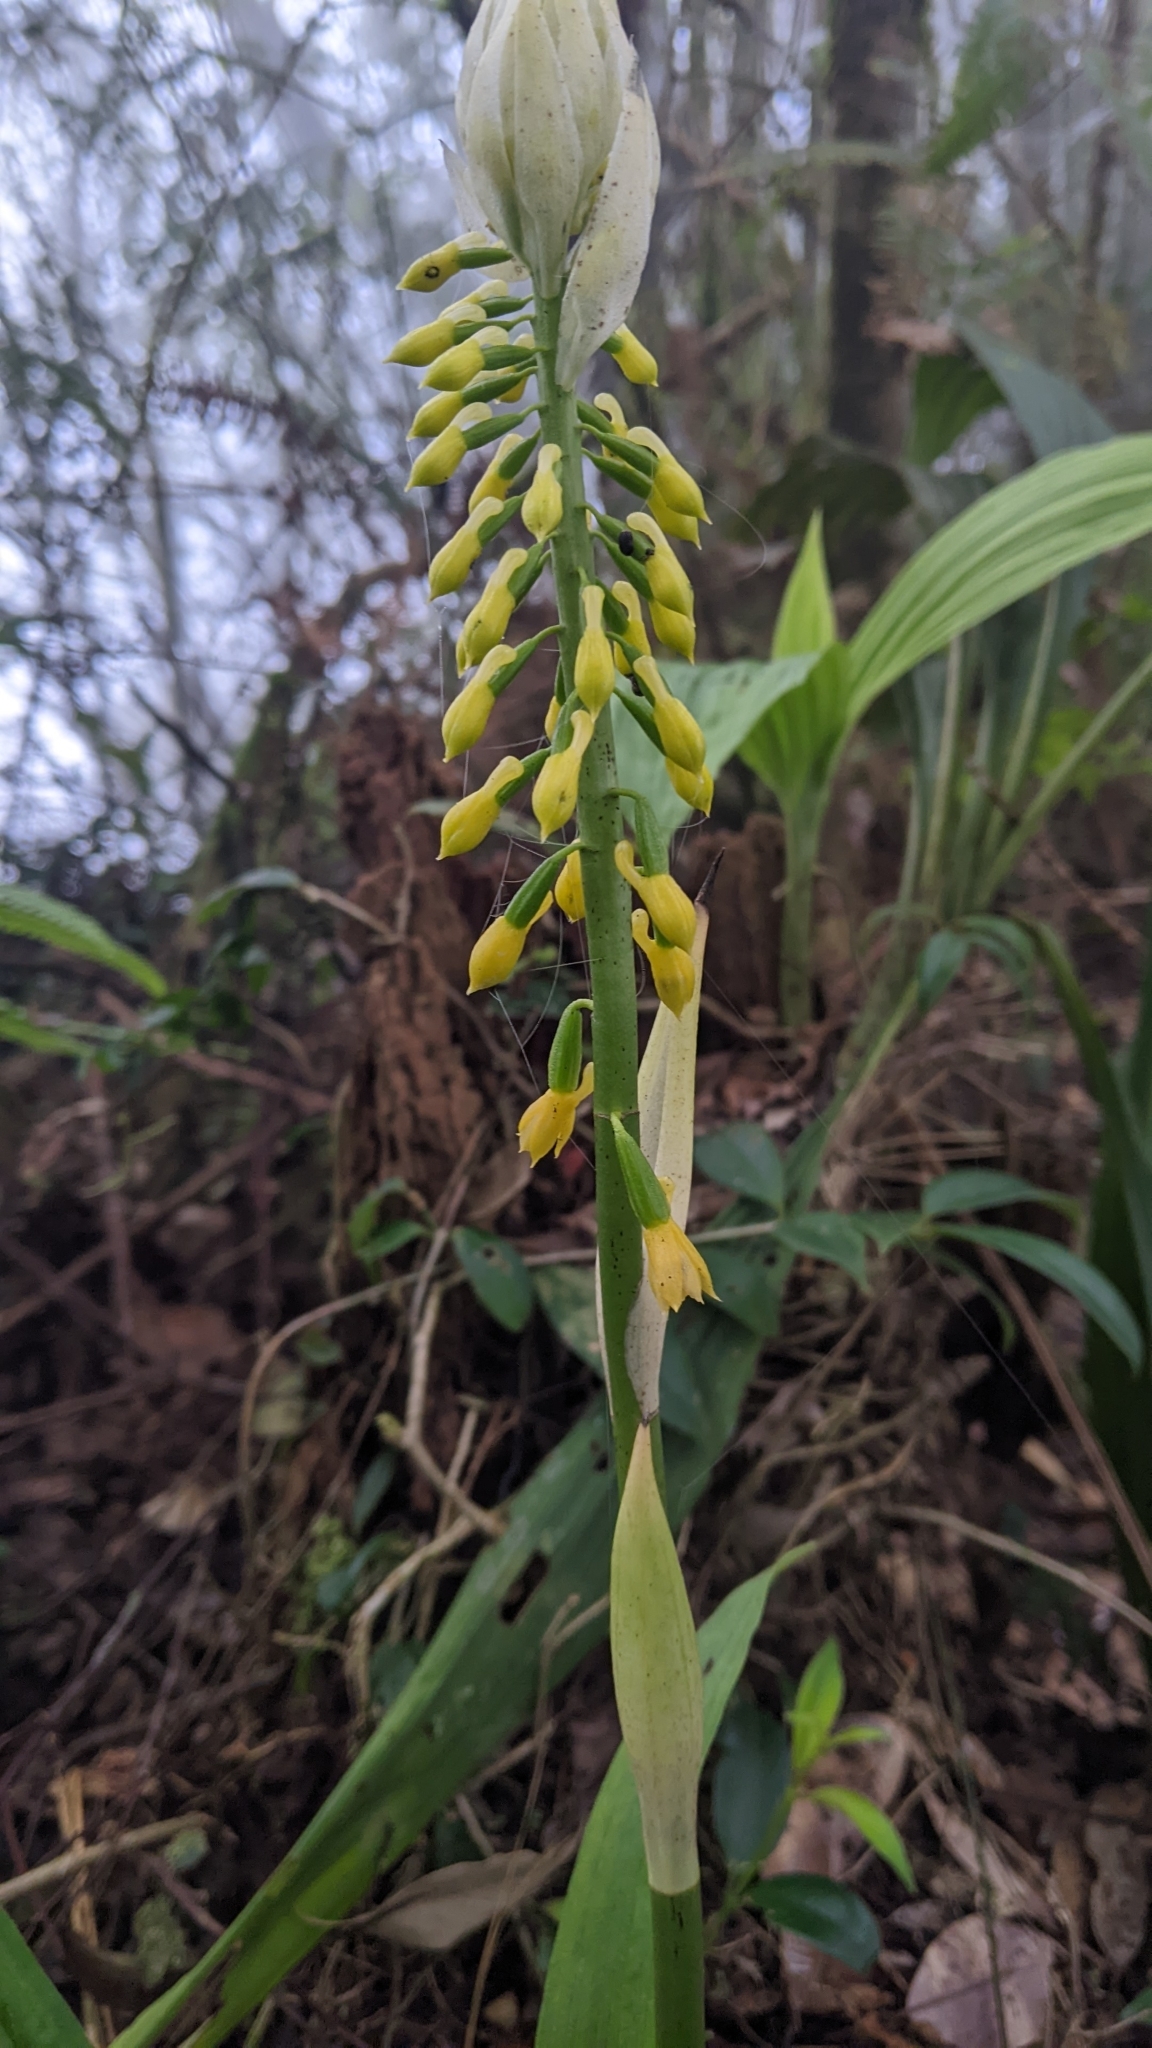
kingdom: Plantae
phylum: Tracheophyta
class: Liliopsida
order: Asparagales
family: Orchidaceae
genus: Calanthe
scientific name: Calanthe lyroglossa
